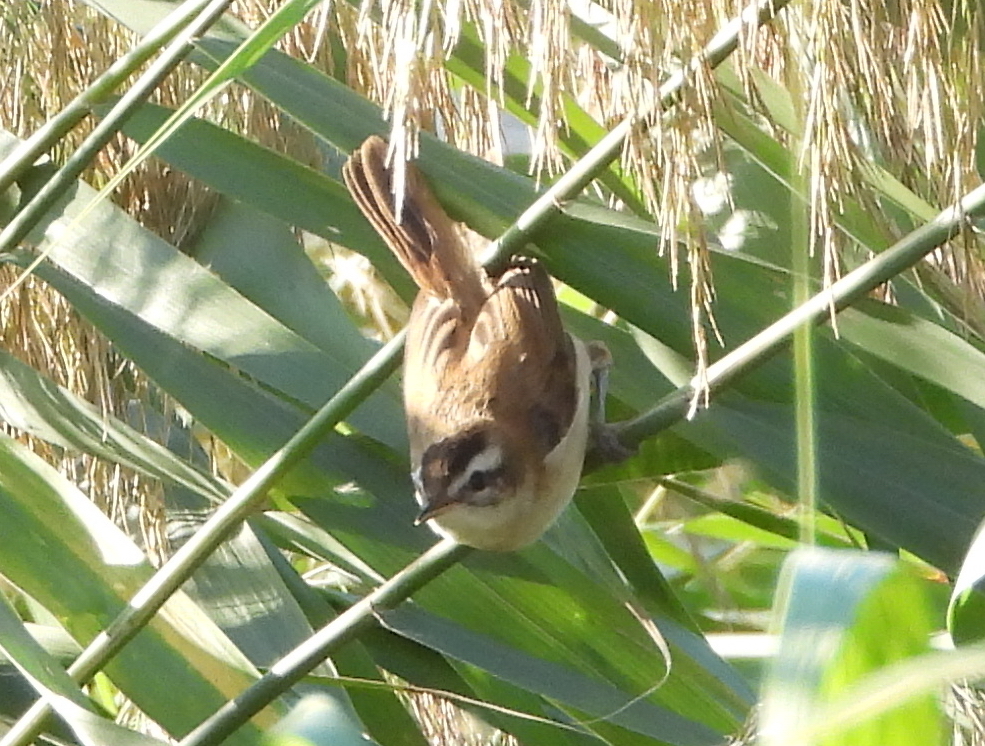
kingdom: Animalia
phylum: Chordata
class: Aves
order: Passeriformes
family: Acrocephalidae
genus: Acrocephalus
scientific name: Acrocephalus melanopogon
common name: Moustached warbler
